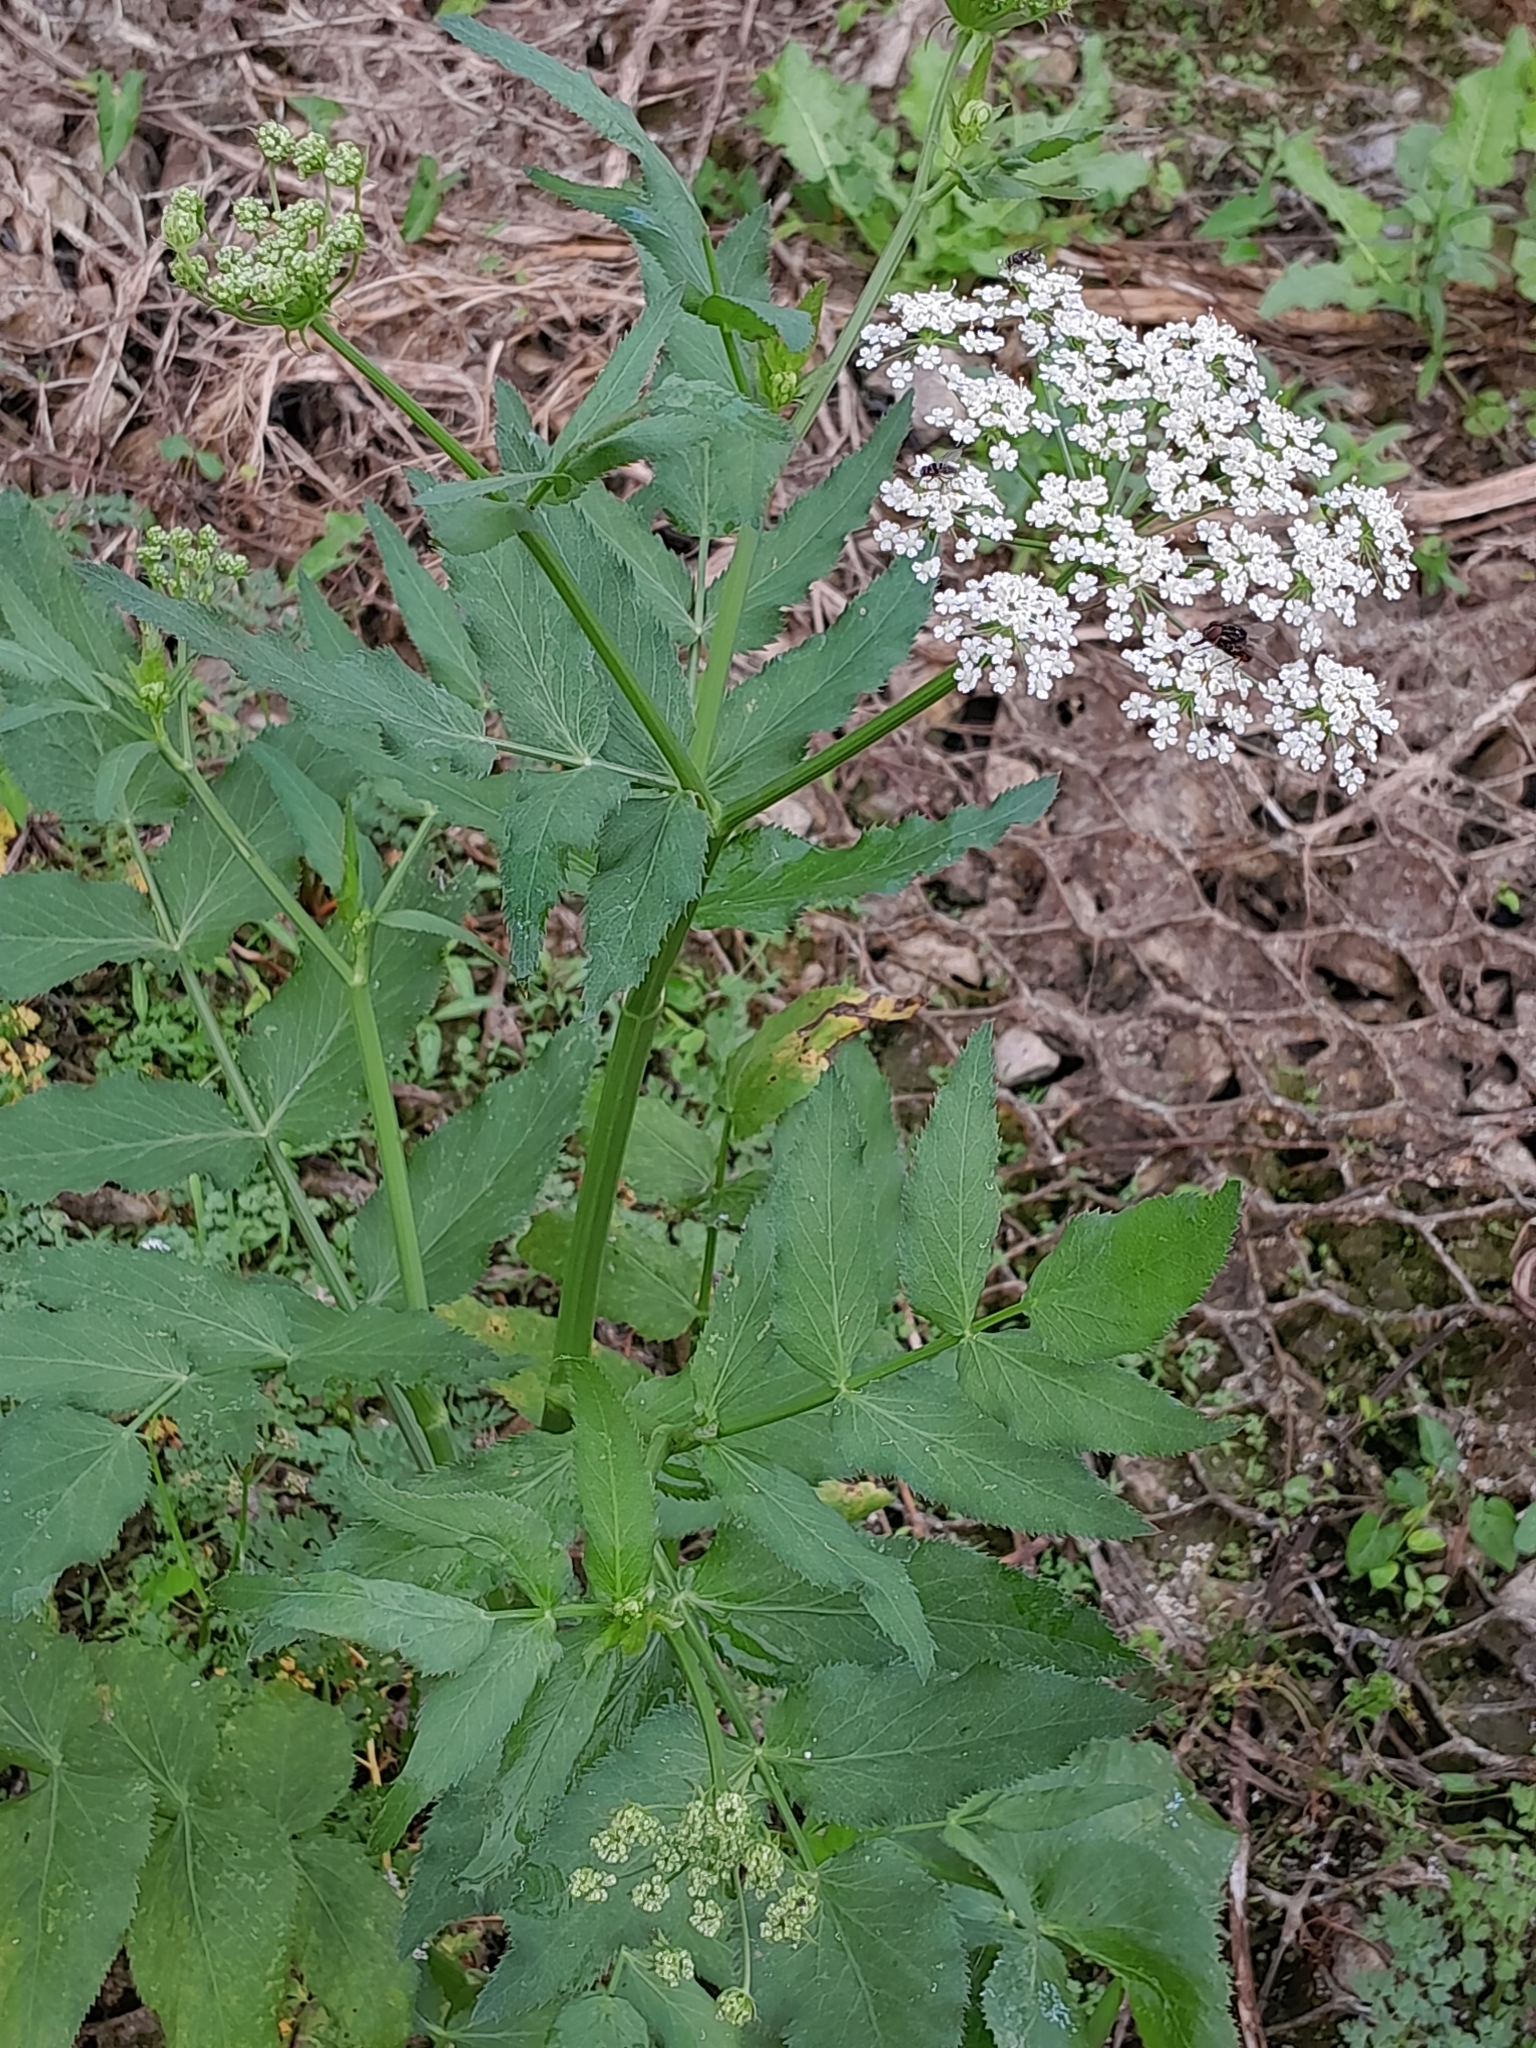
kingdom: Plantae
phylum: Tracheophyta
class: Magnoliopsida
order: Apiales
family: Apiaceae
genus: Sium
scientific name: Sium latifolium
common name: Greater water-parsnip
